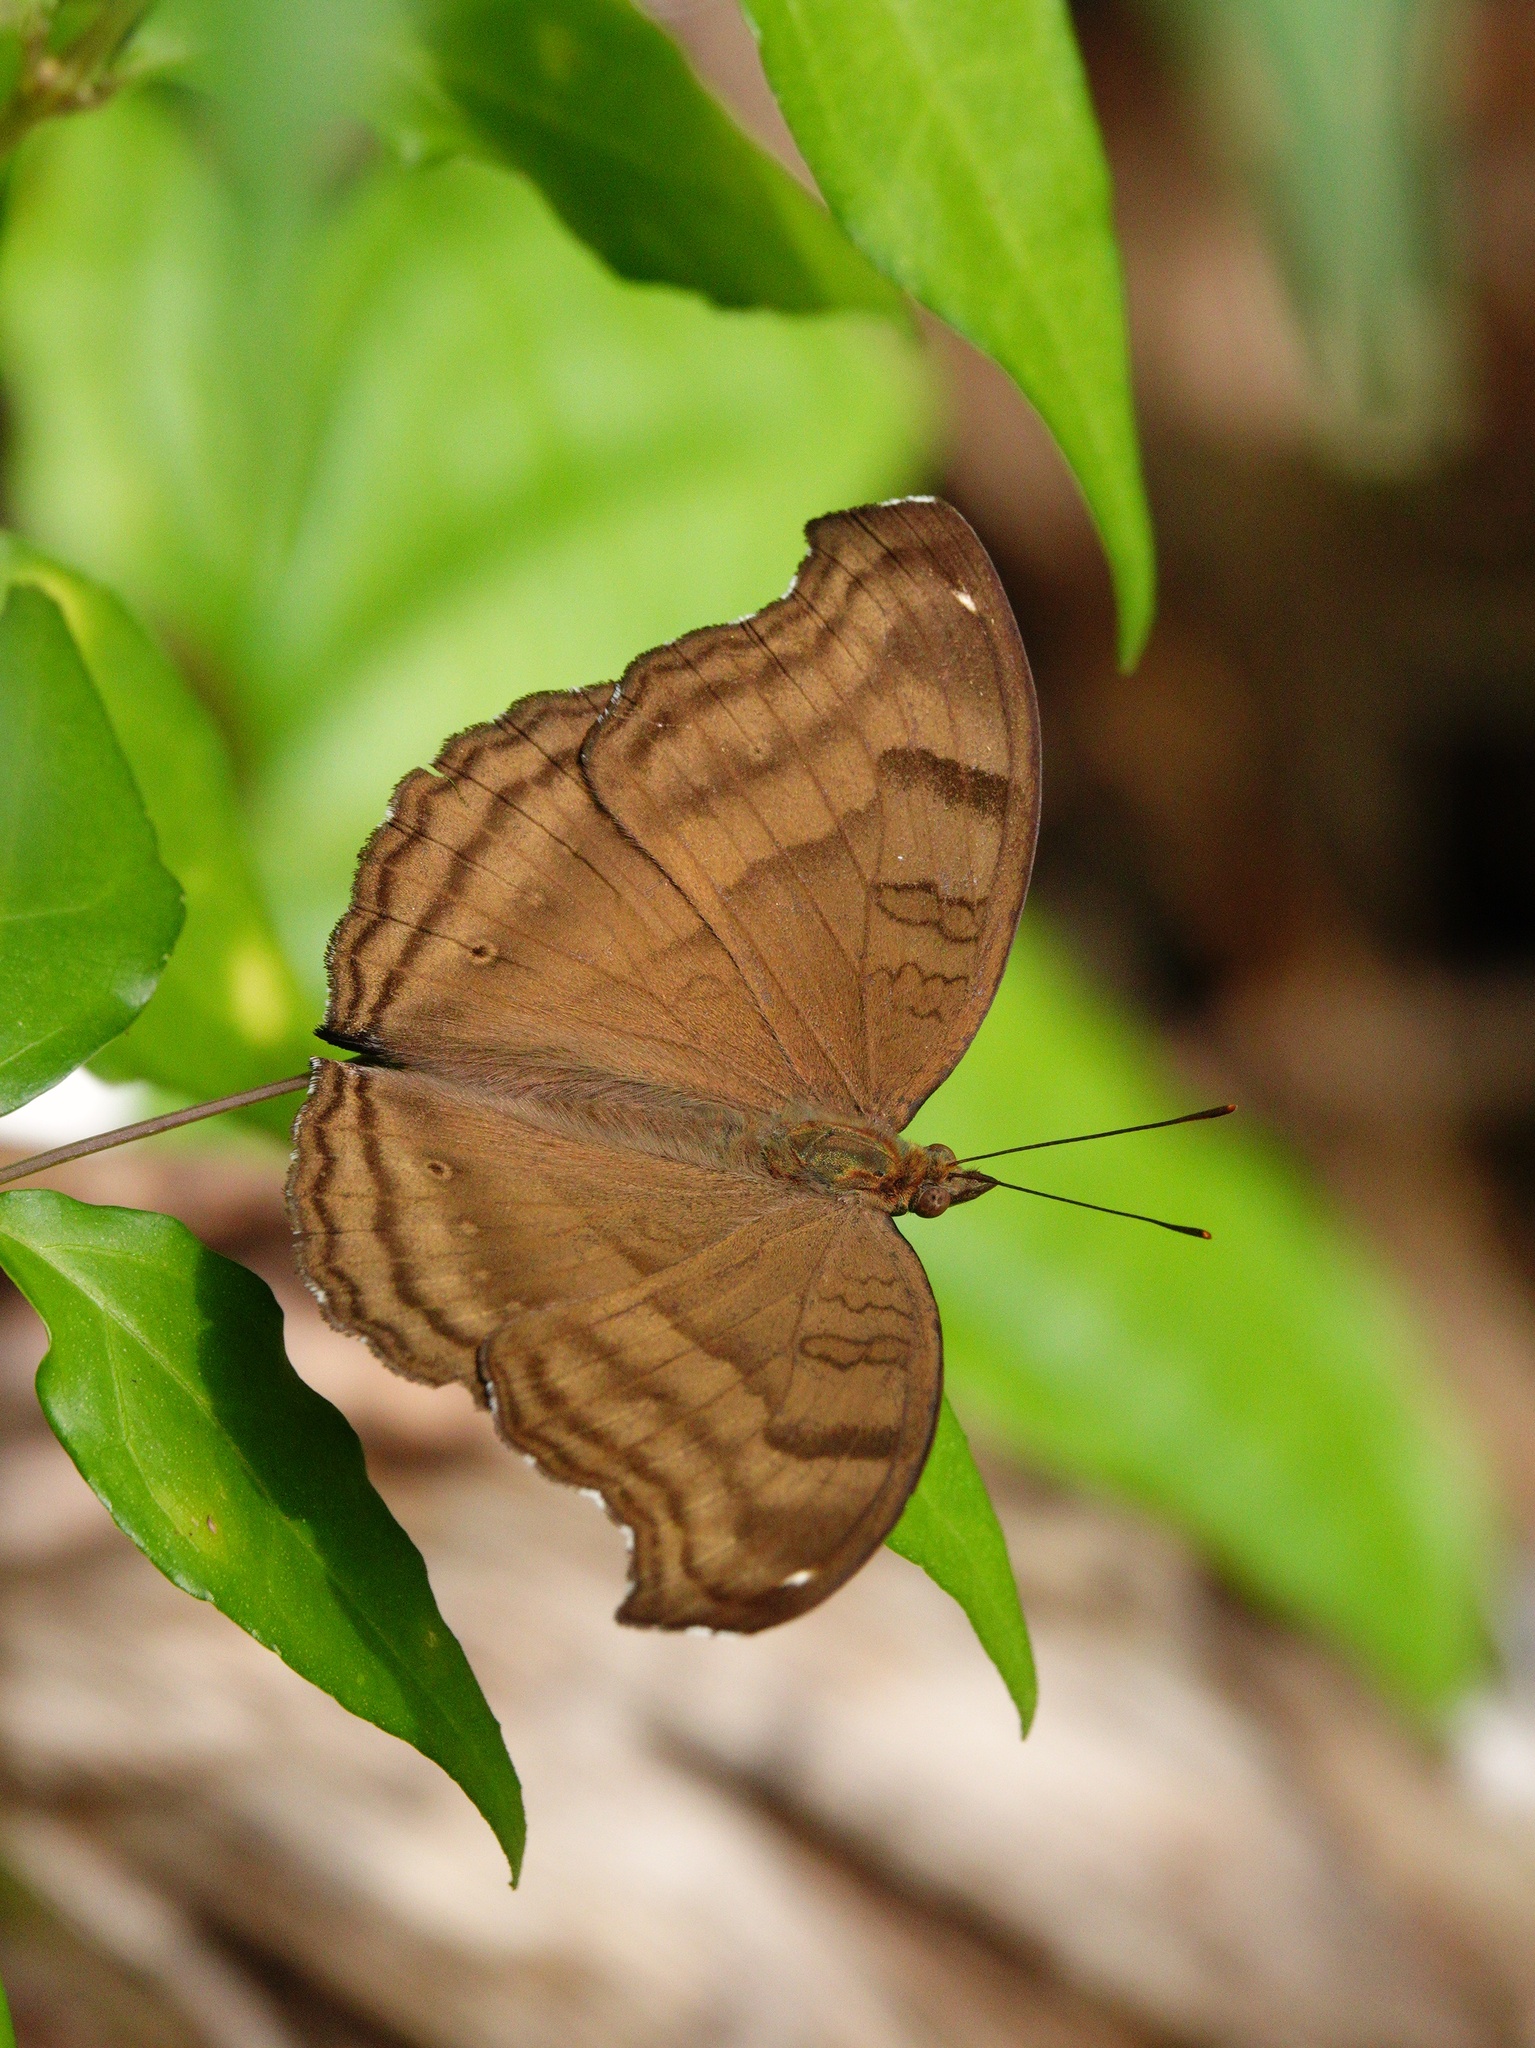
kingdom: Animalia
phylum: Arthropoda
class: Insecta
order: Lepidoptera
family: Nymphalidae
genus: Junonia
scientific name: Junonia iphita
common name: Chocolate pansy
